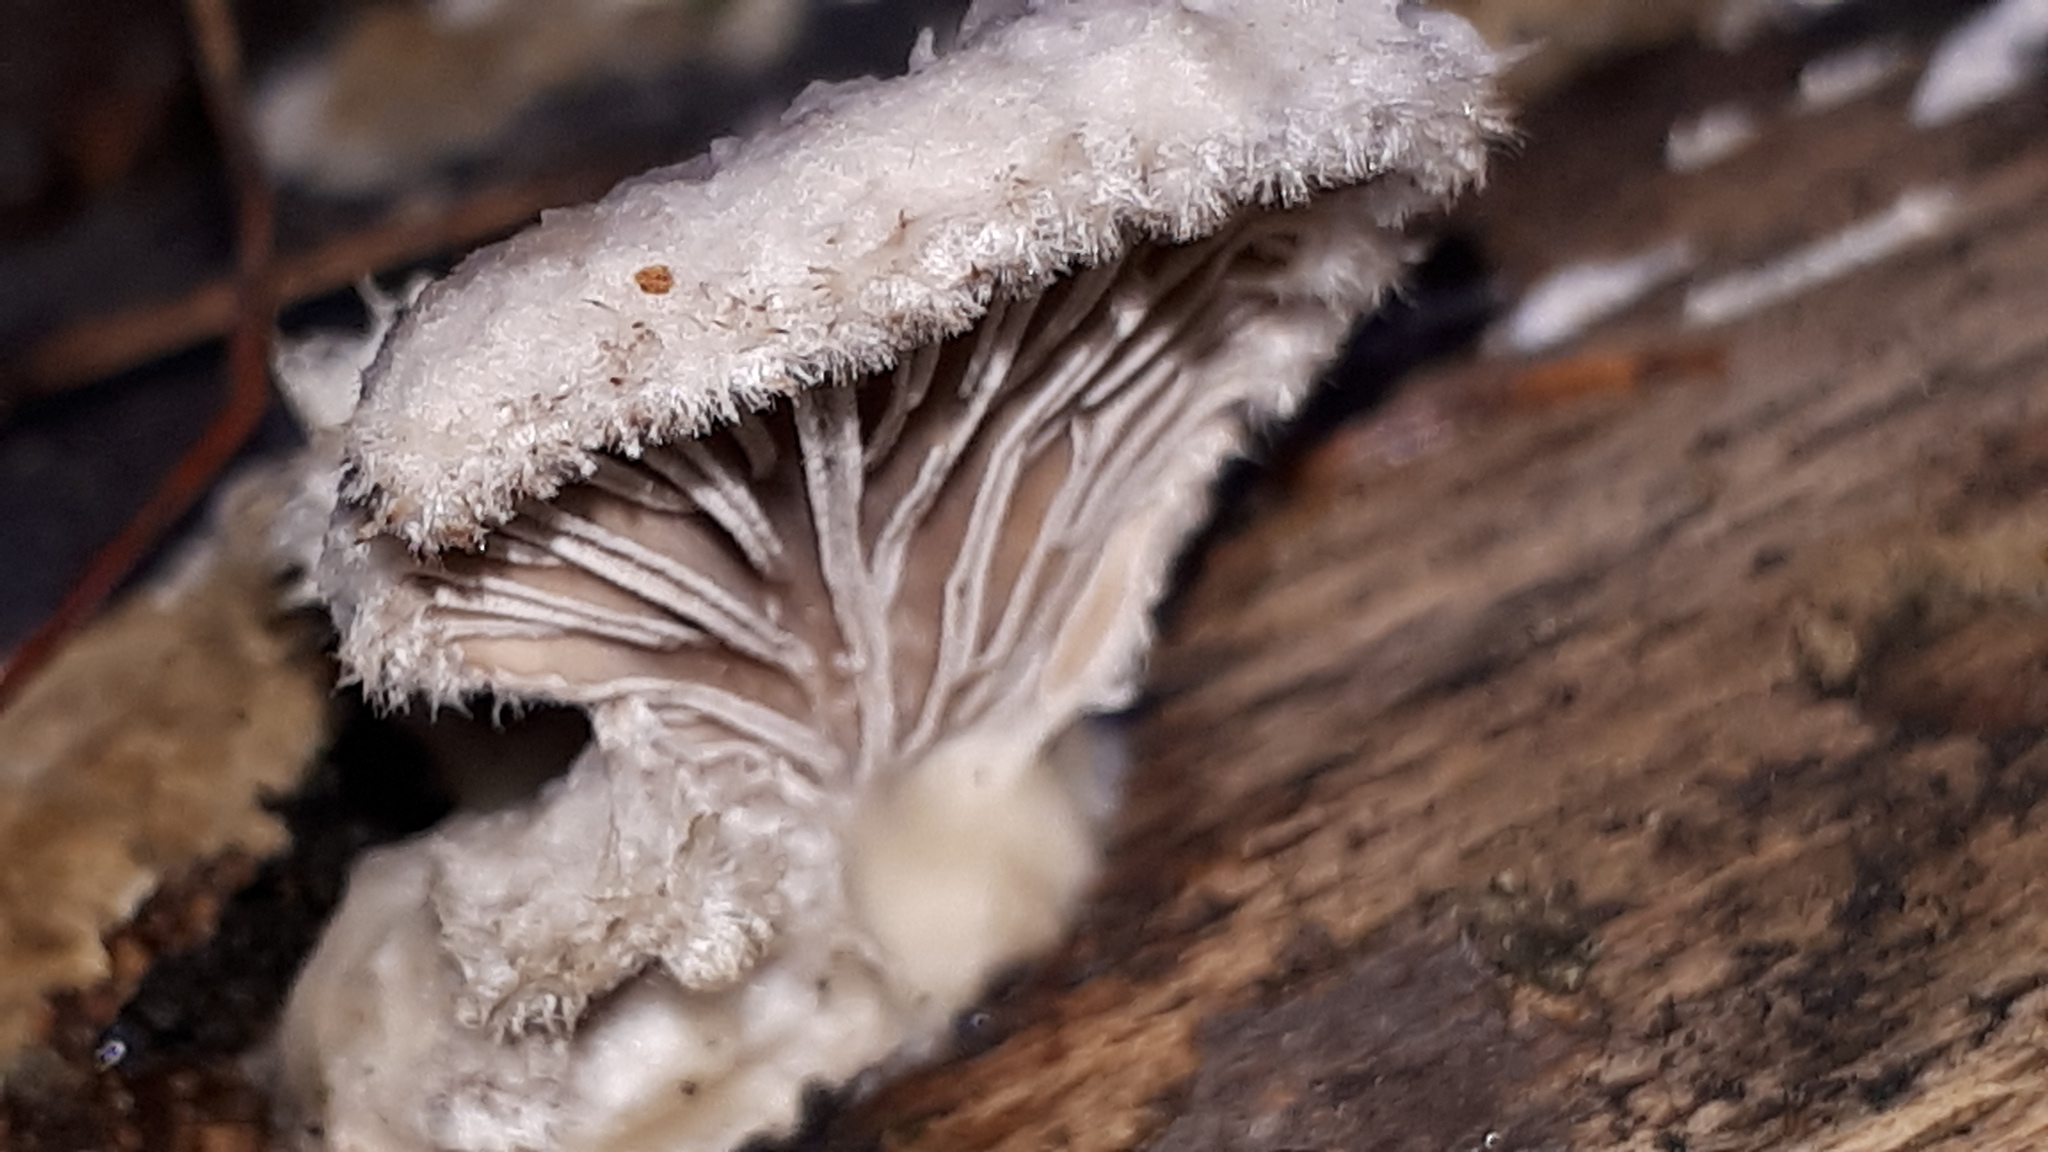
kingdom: Fungi
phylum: Basidiomycota
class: Agaricomycetes
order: Agaricales
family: Schizophyllaceae
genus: Schizophyllum
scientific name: Schizophyllum commune
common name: Common porecrust
